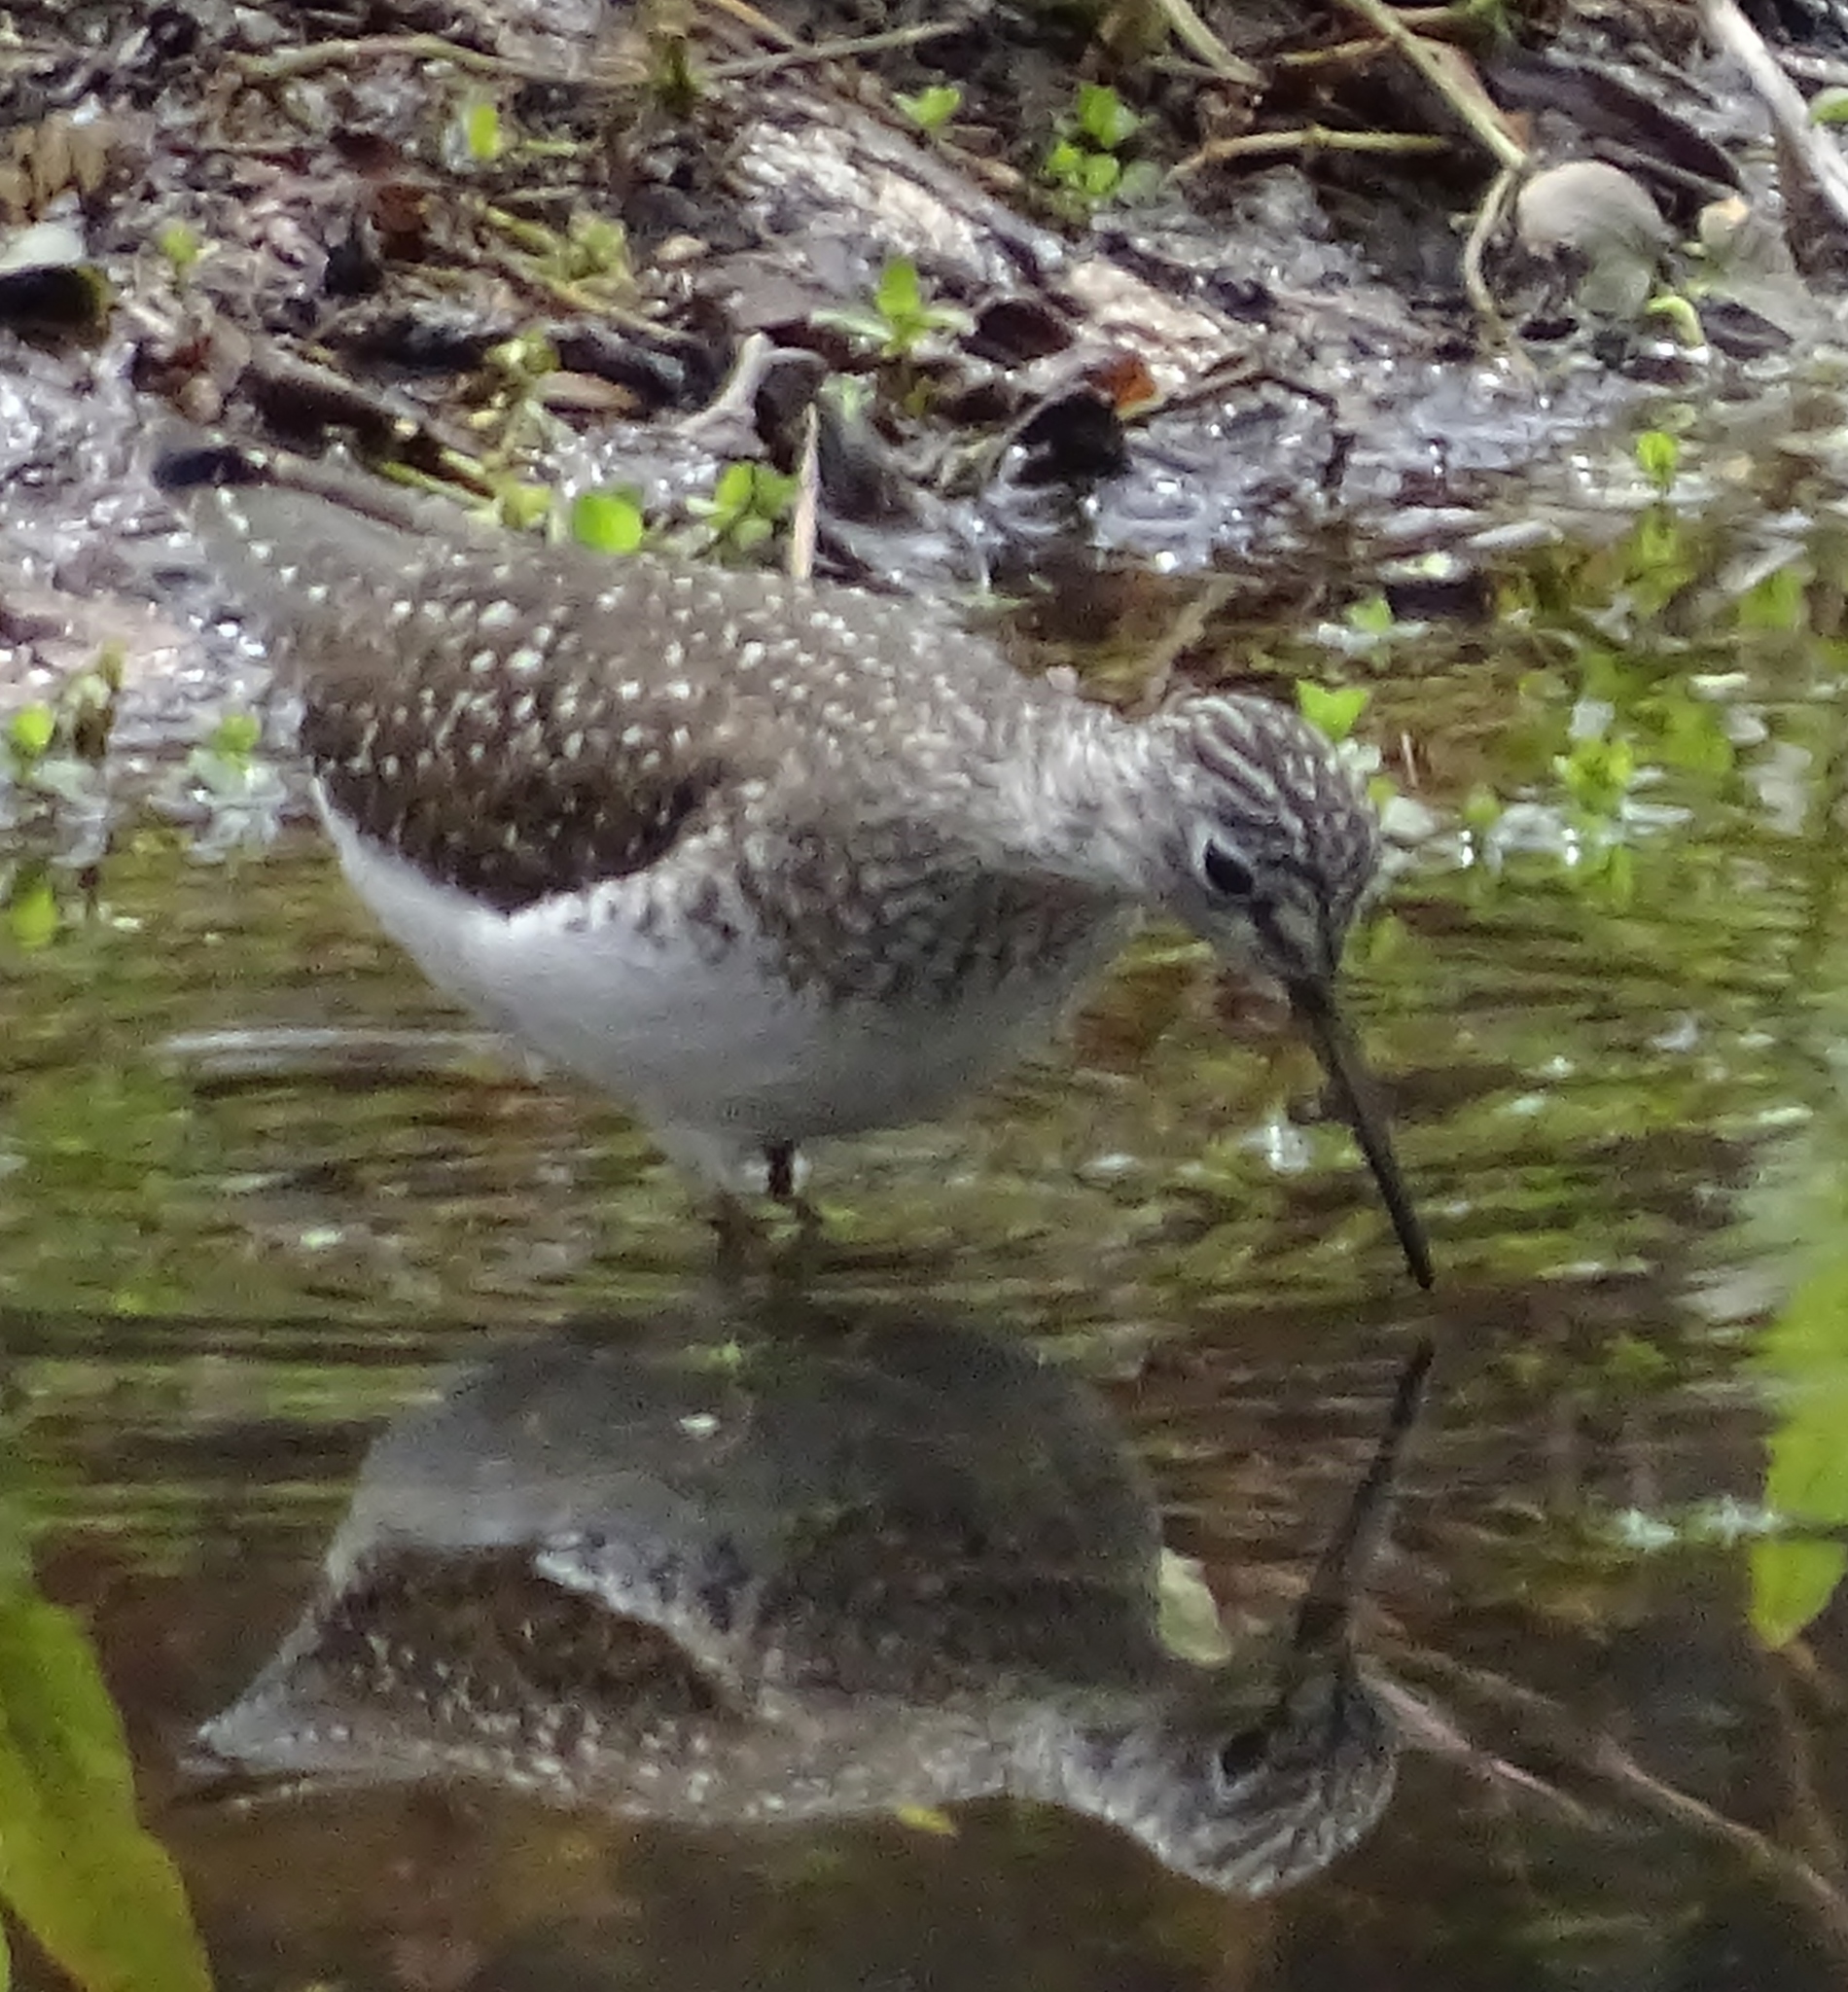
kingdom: Animalia
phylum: Chordata
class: Aves
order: Charadriiformes
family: Scolopacidae
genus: Tringa
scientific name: Tringa solitaria
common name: Solitary sandpiper
